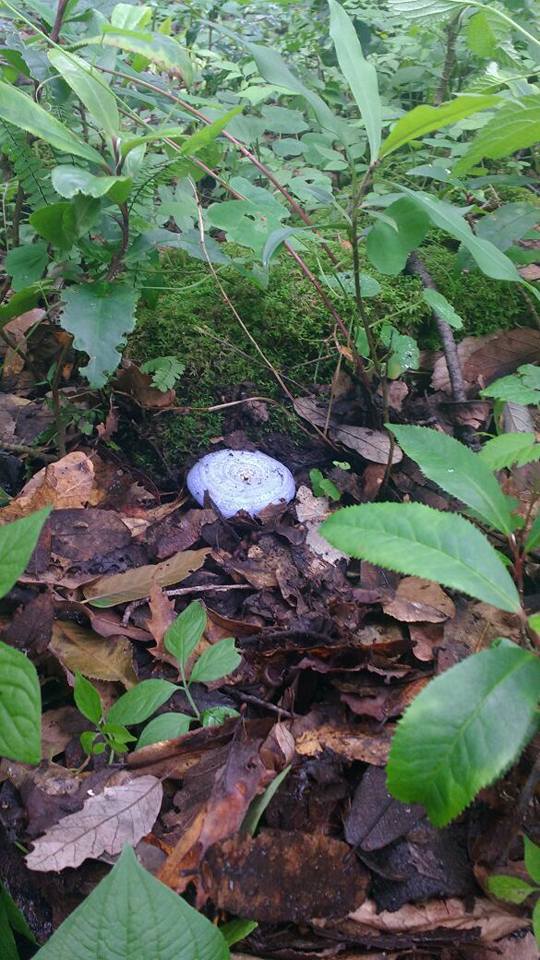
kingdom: Fungi
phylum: Basidiomycota
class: Agaricomycetes
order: Russulales
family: Russulaceae
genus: Lactarius
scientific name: Lactarius indigo
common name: Indigo milk cap
